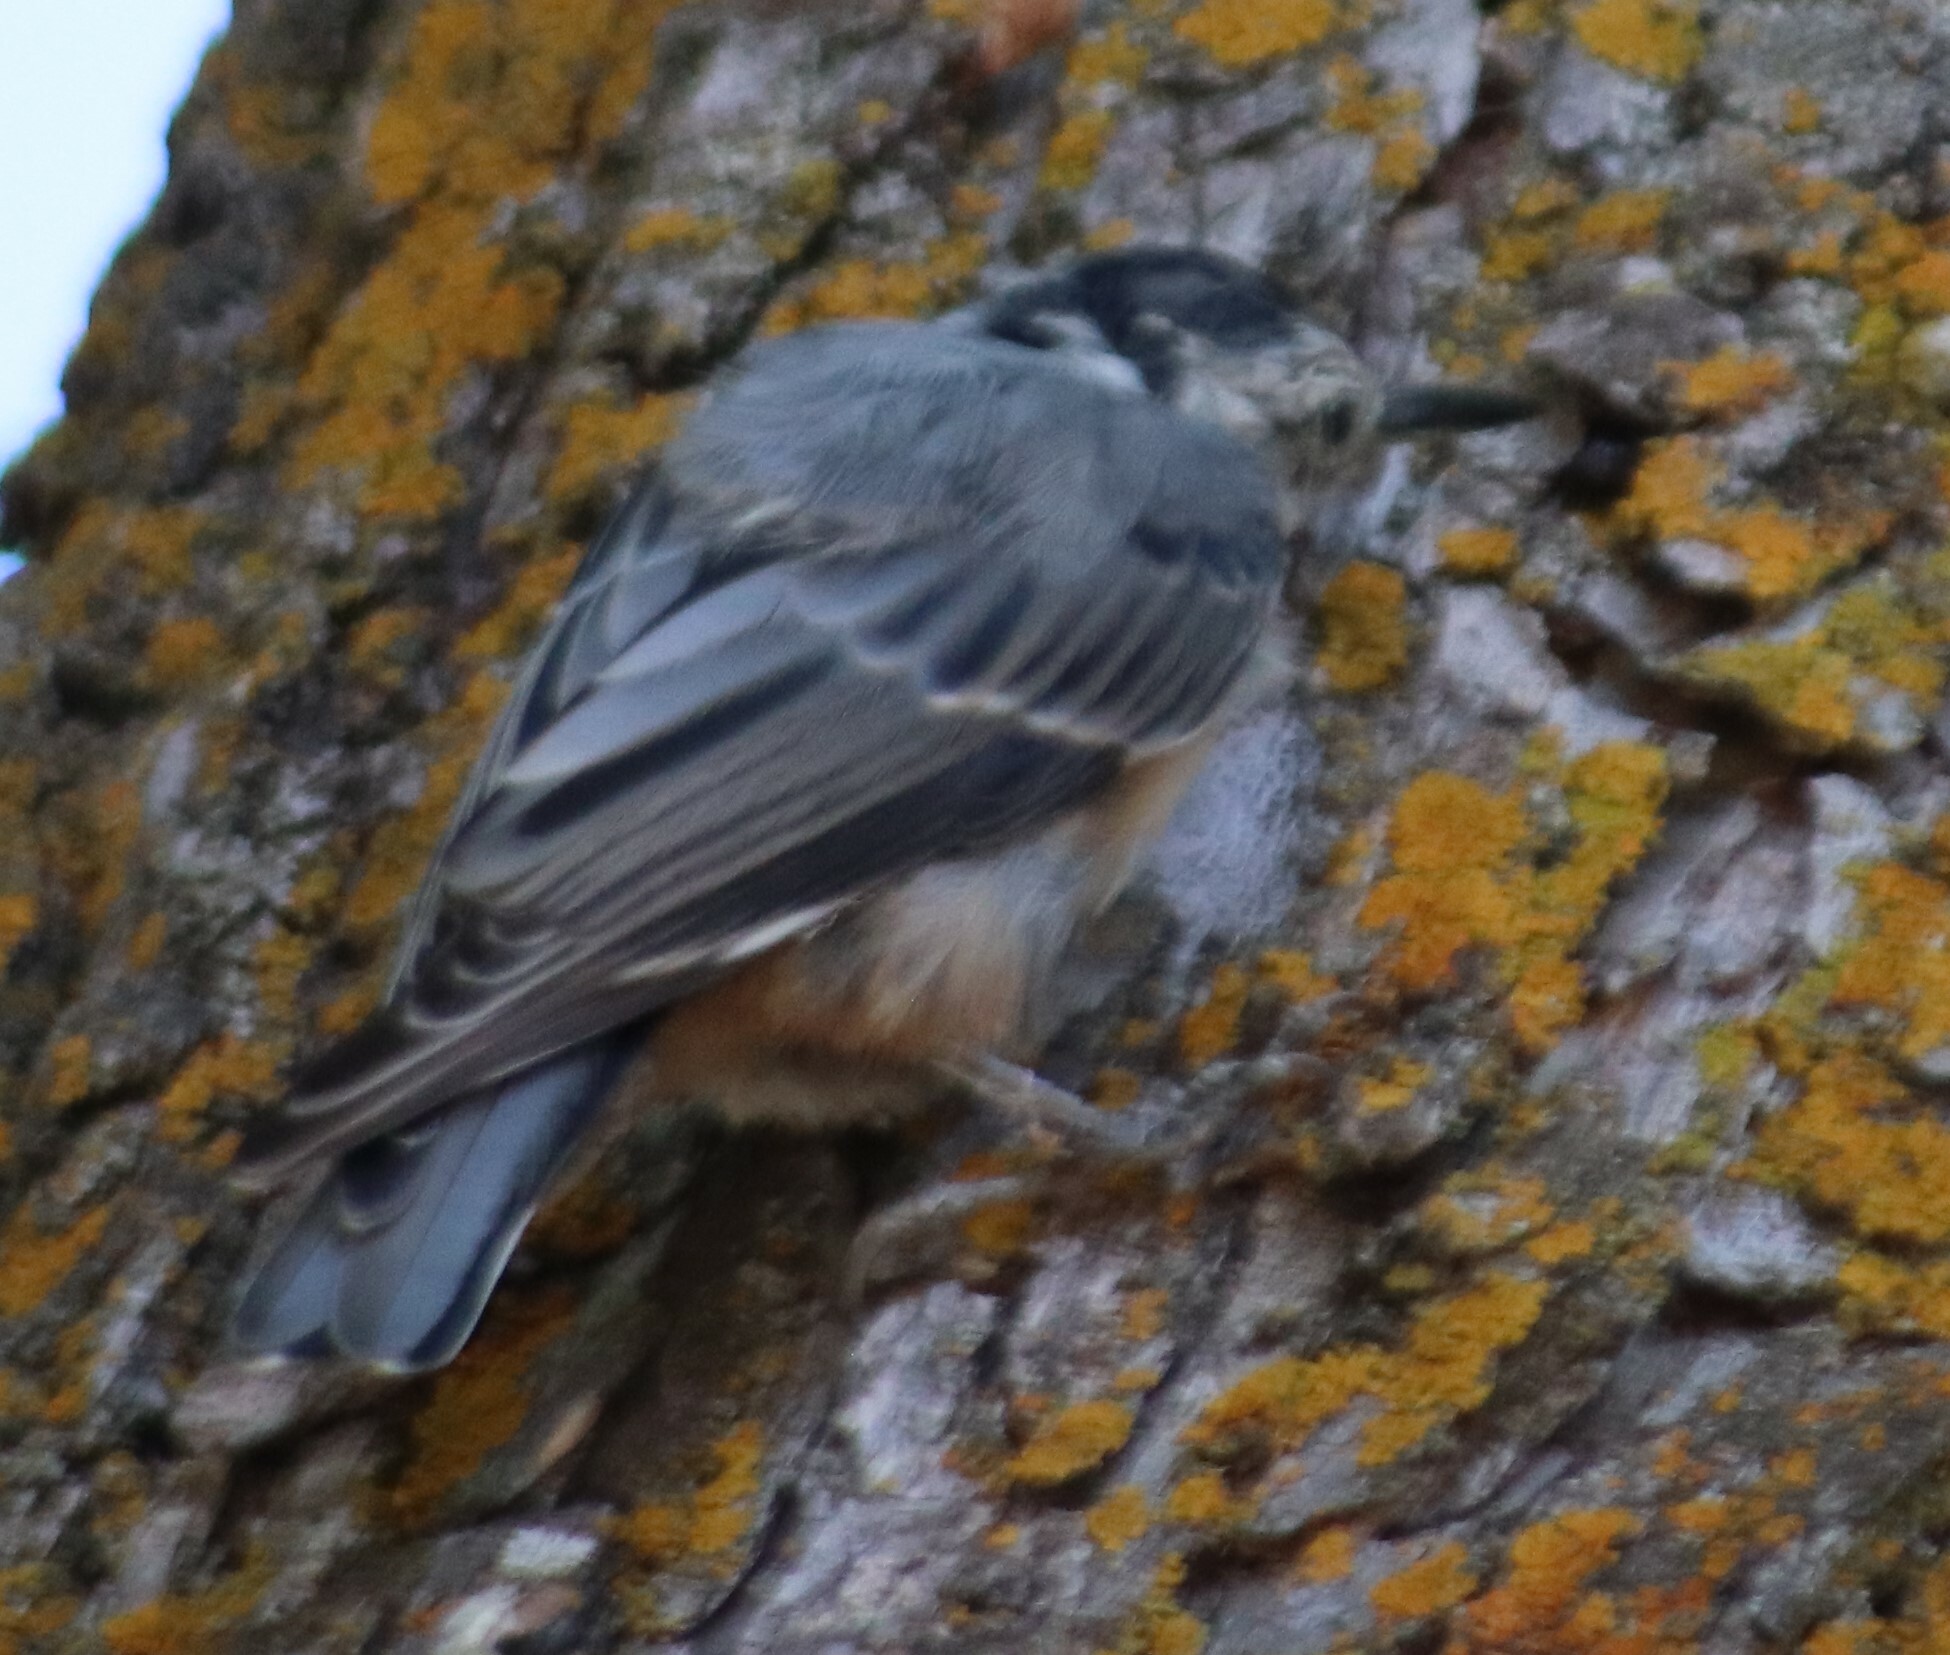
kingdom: Animalia
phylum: Chordata
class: Aves
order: Passeriformes
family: Sittidae
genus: Sitta
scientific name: Sitta carolinensis
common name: White-breasted nuthatch
